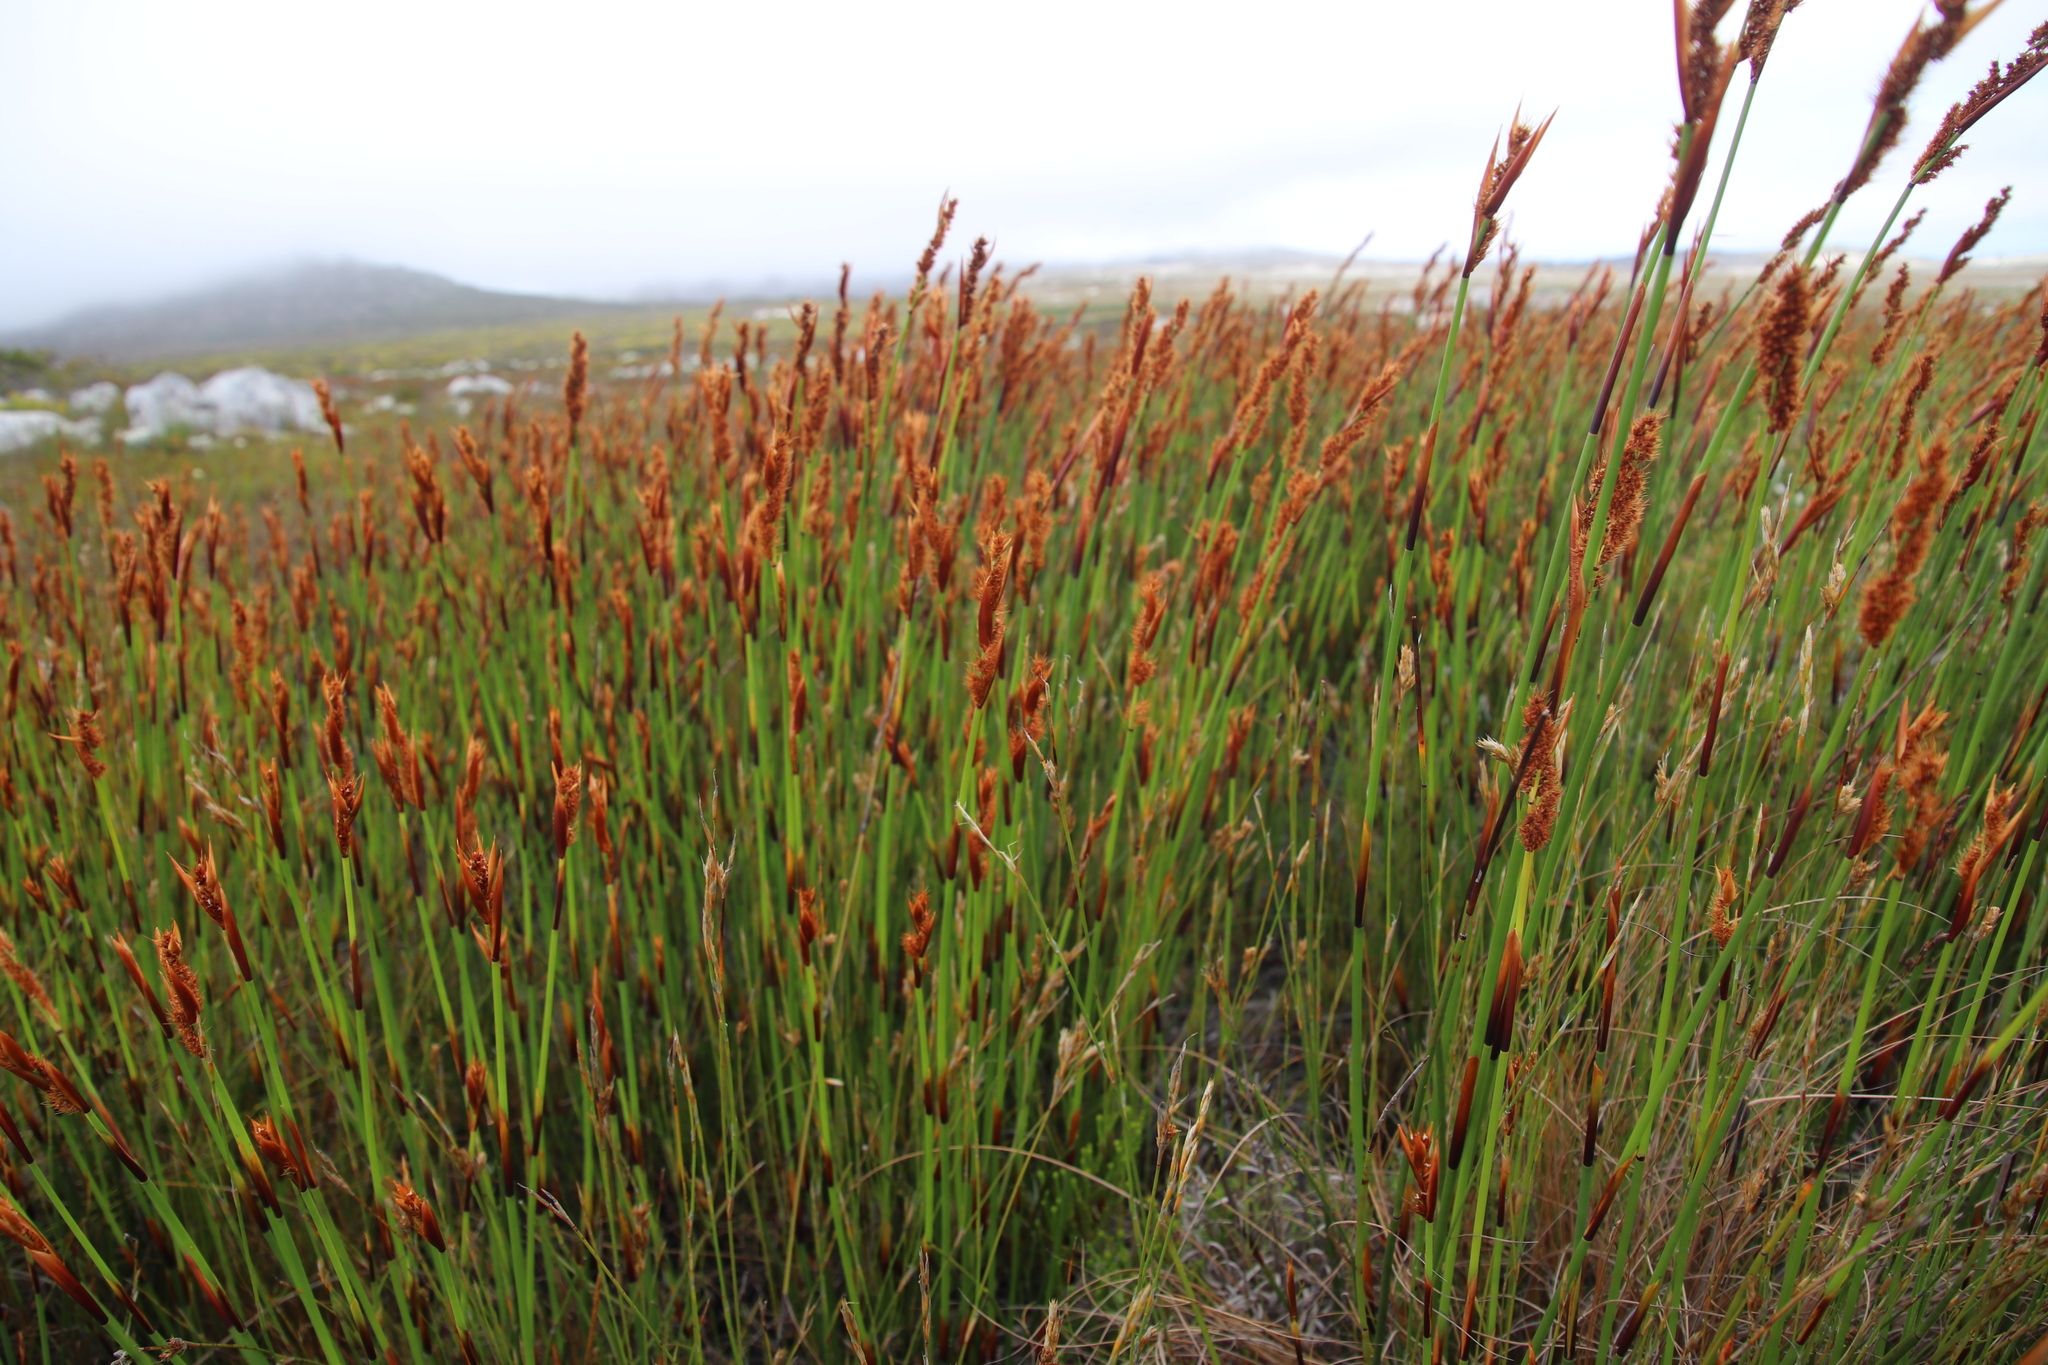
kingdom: Plantae
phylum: Tracheophyta
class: Liliopsida
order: Poales
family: Restionaceae
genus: Elegia
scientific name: Elegia cuspidata
